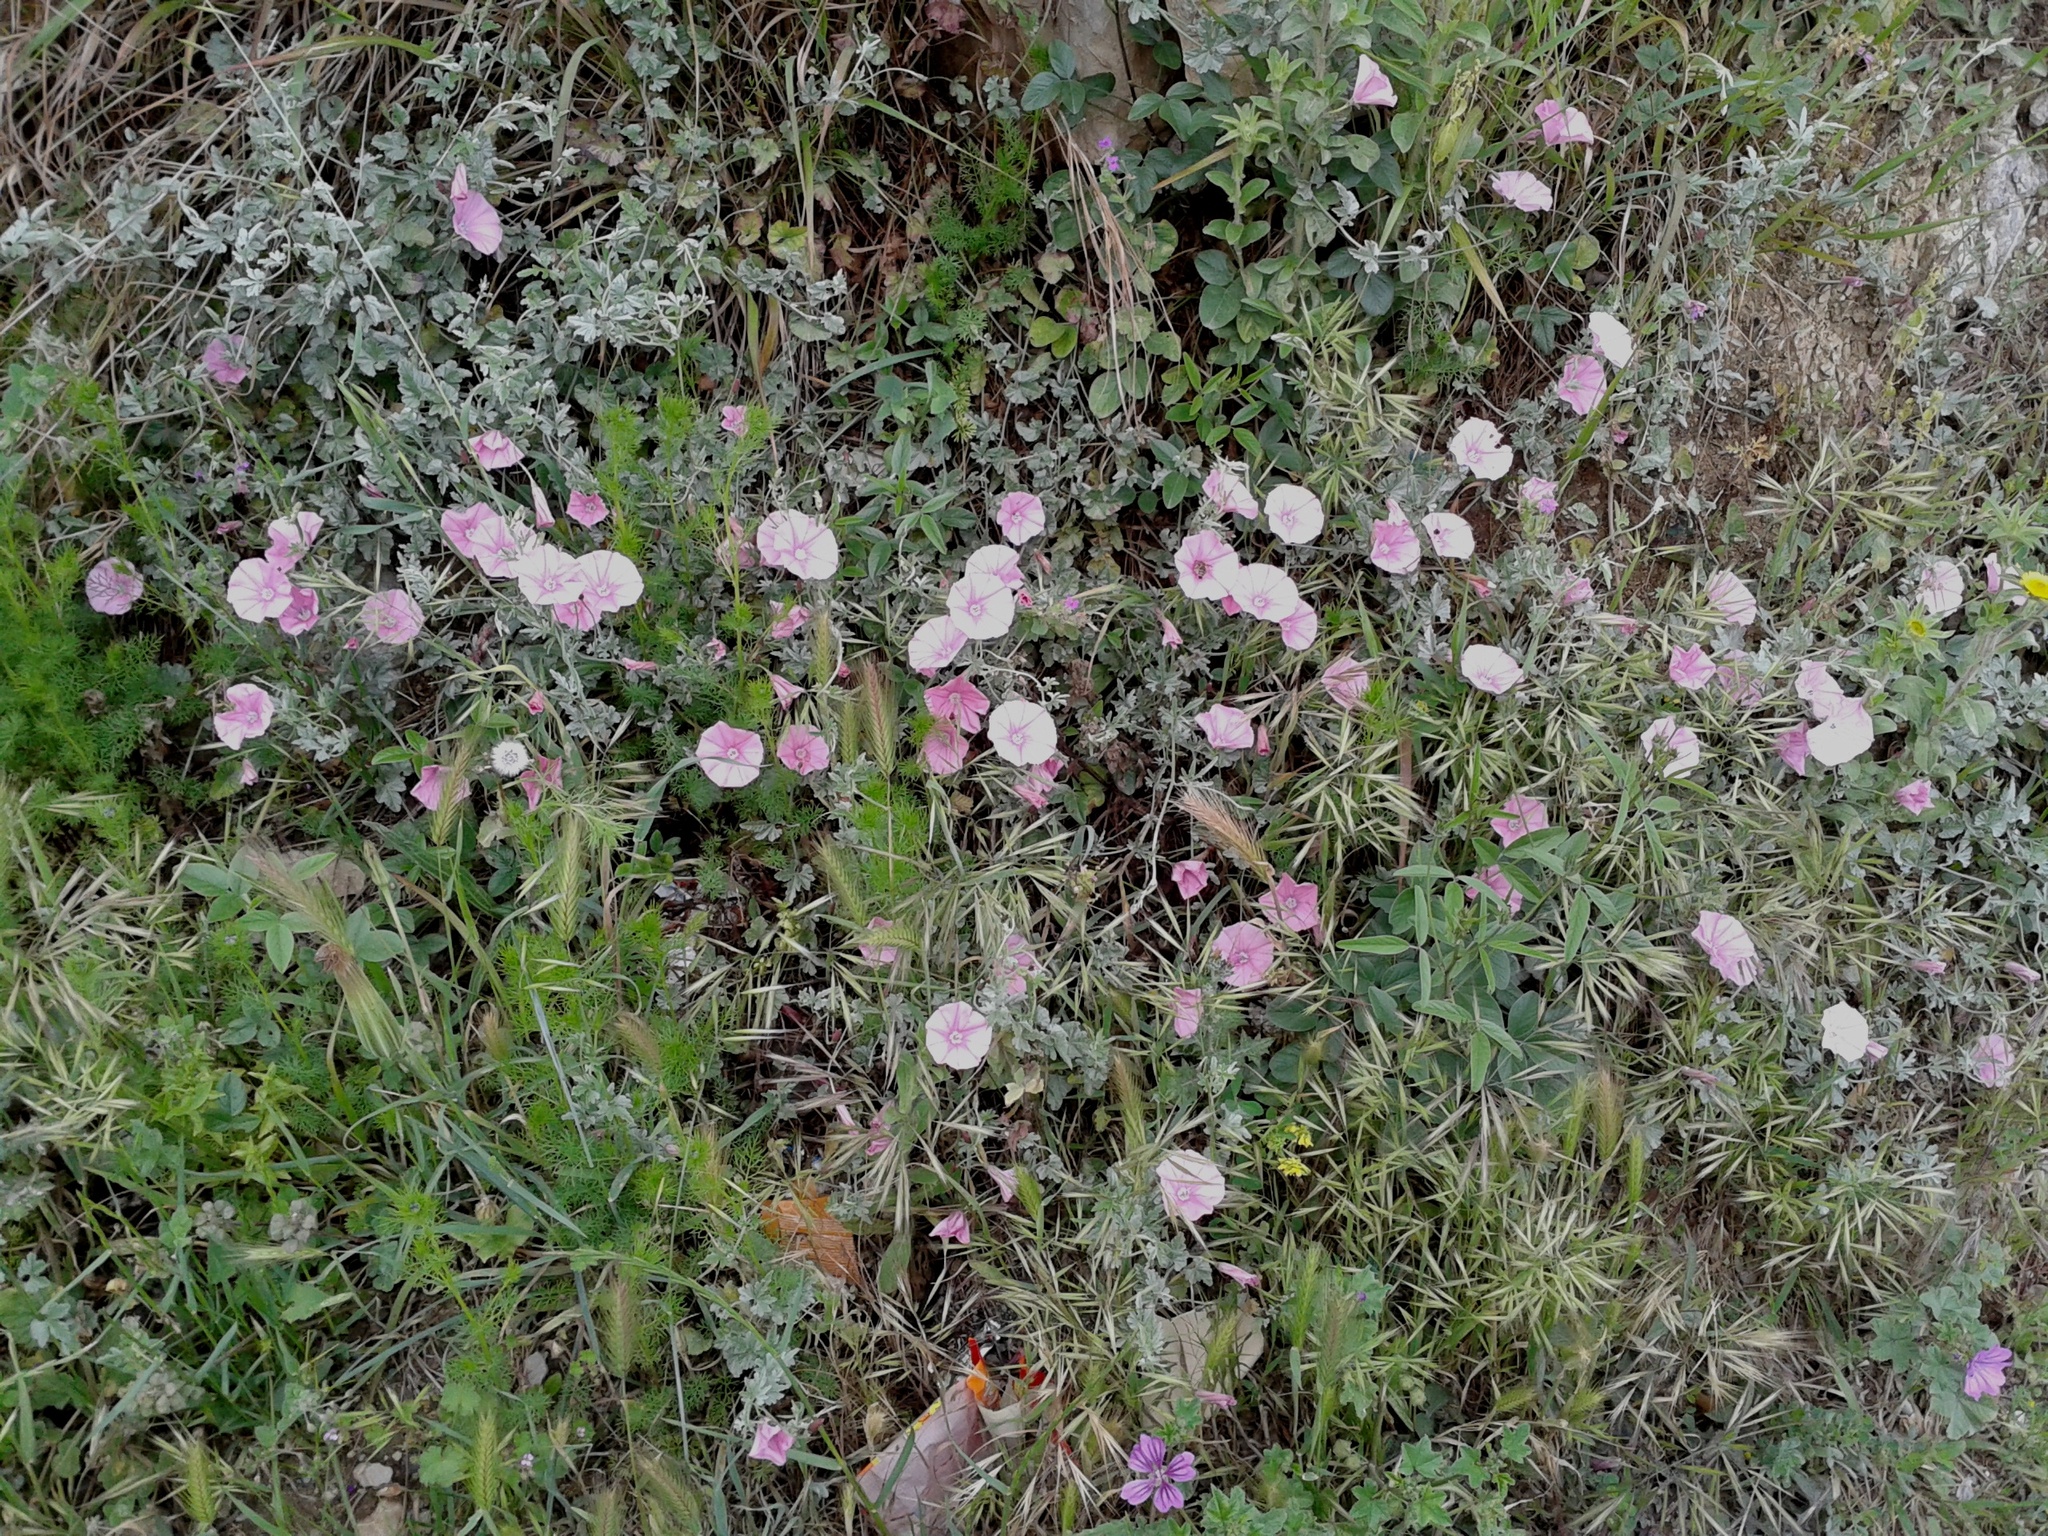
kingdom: Plantae
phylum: Tracheophyta
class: Magnoliopsida
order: Solanales
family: Convolvulaceae
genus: Convolvulus
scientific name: Convolvulus elegantissimus
